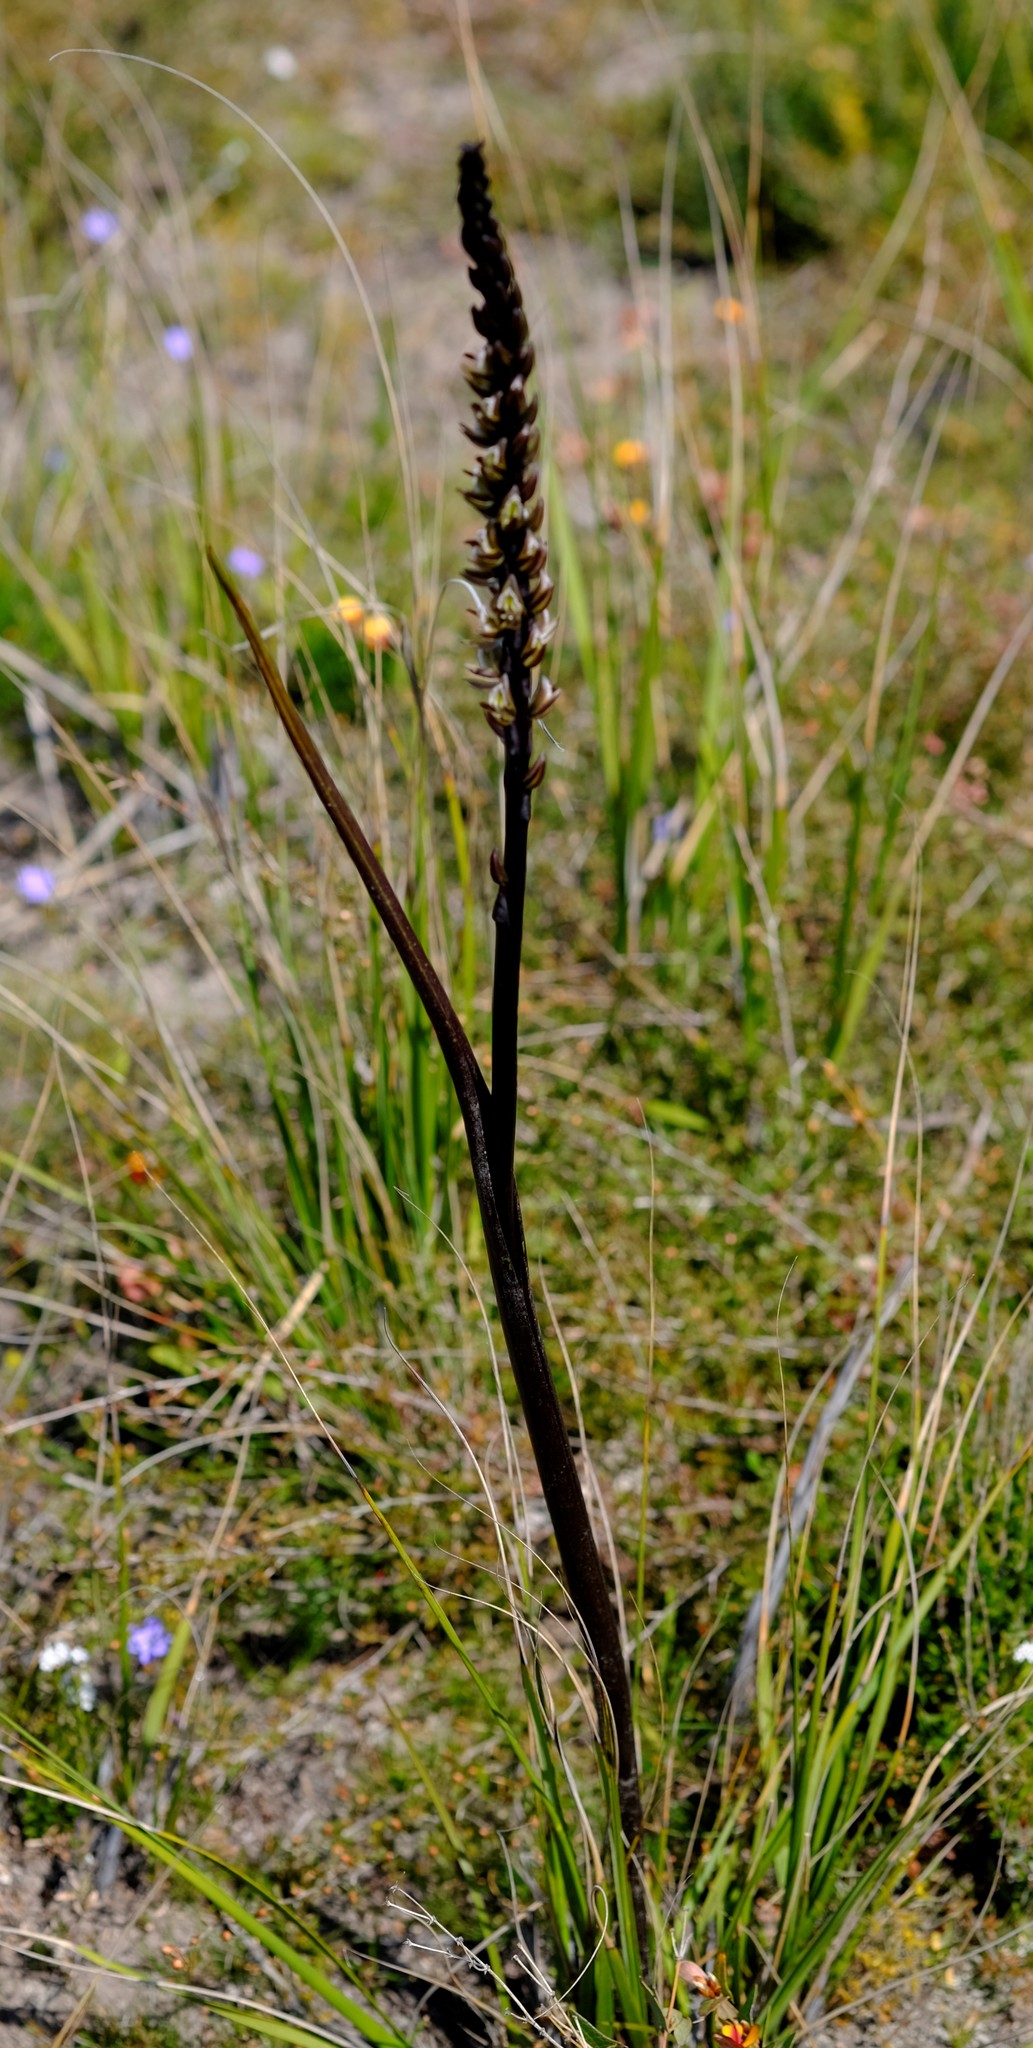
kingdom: Plantae
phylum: Tracheophyta
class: Liliopsida
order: Asparagales
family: Orchidaceae
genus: Prasophyllum
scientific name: Prasophyllum elatum
